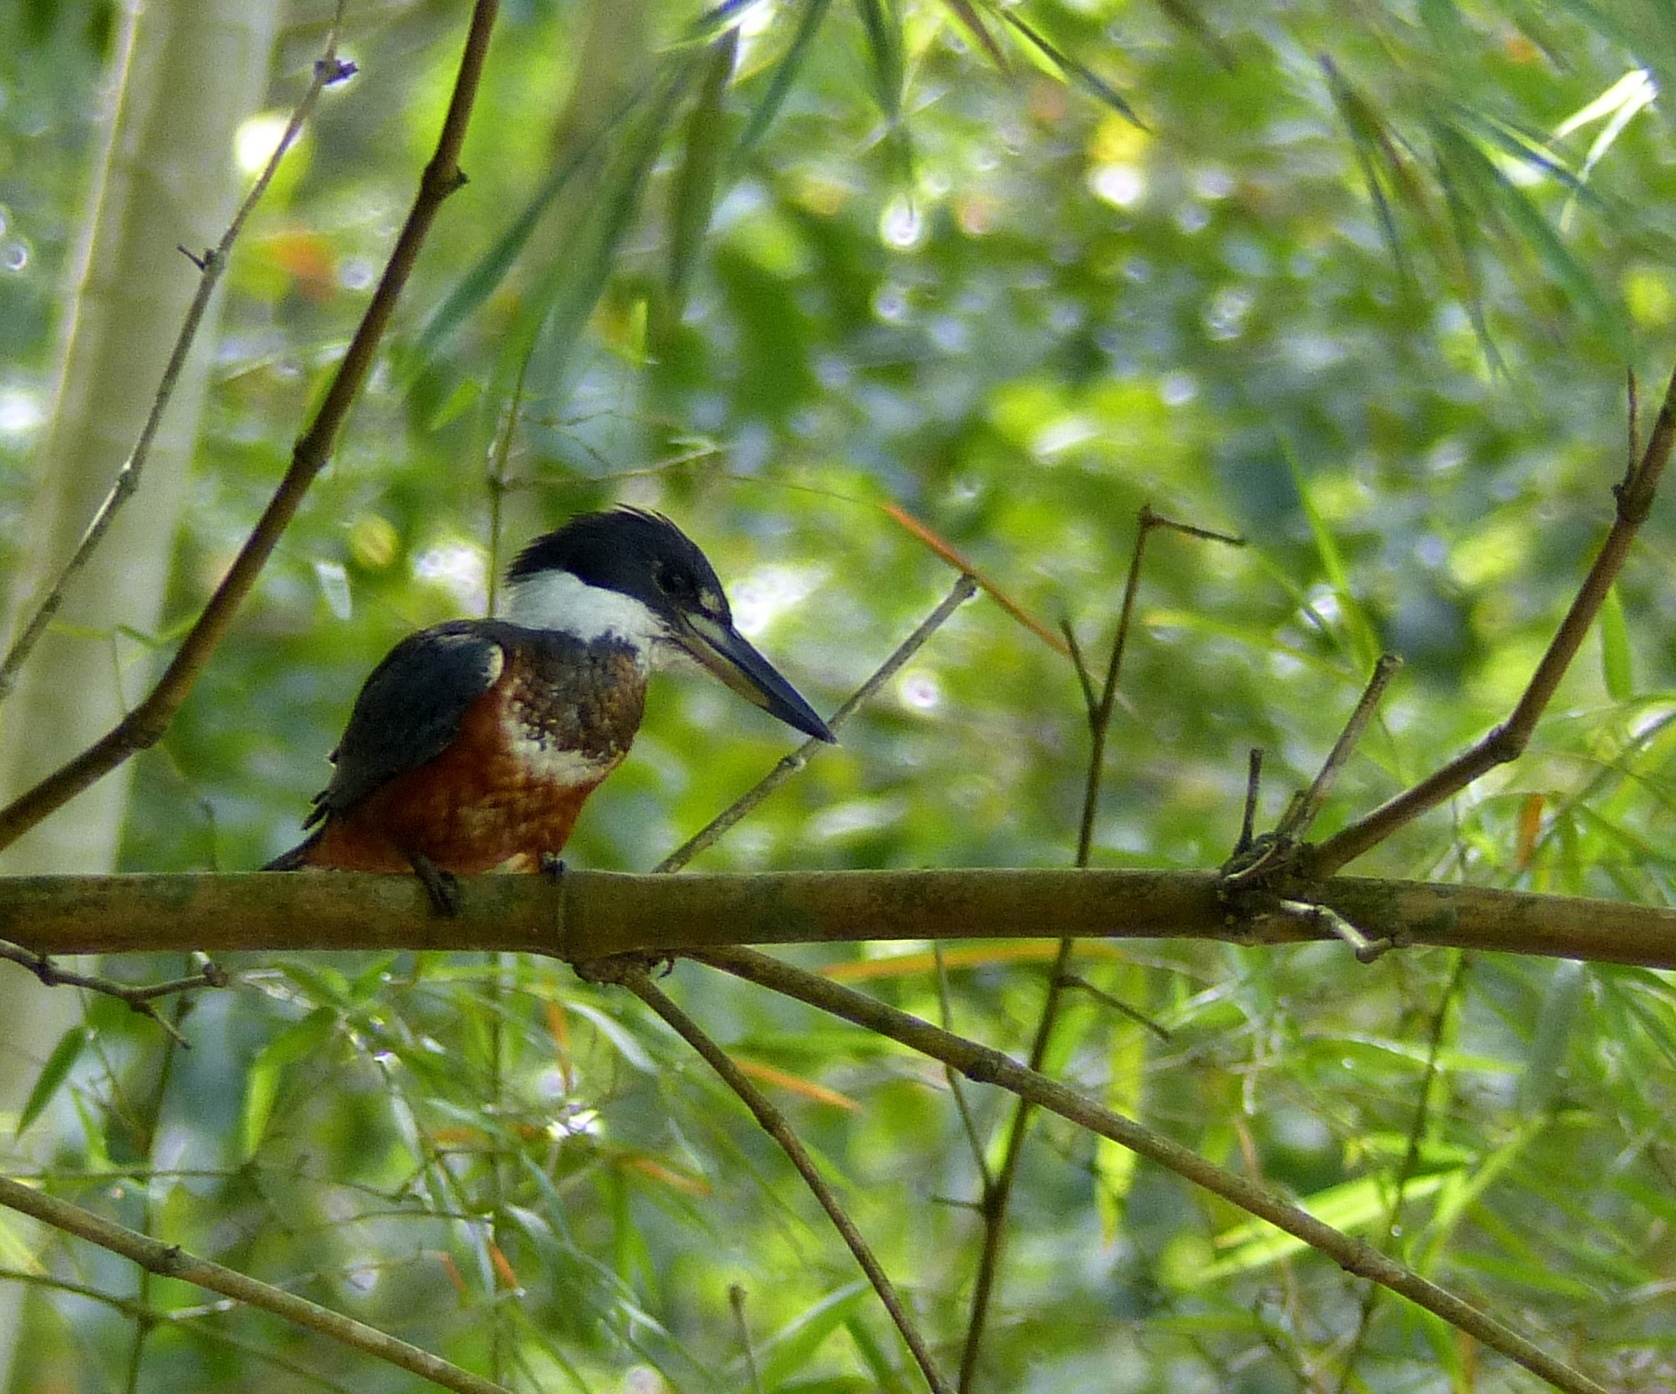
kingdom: Animalia
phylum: Chordata
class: Aves
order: Coraciiformes
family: Alcedinidae
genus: Megaceryle
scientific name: Megaceryle torquata
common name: Ringed kingfisher
